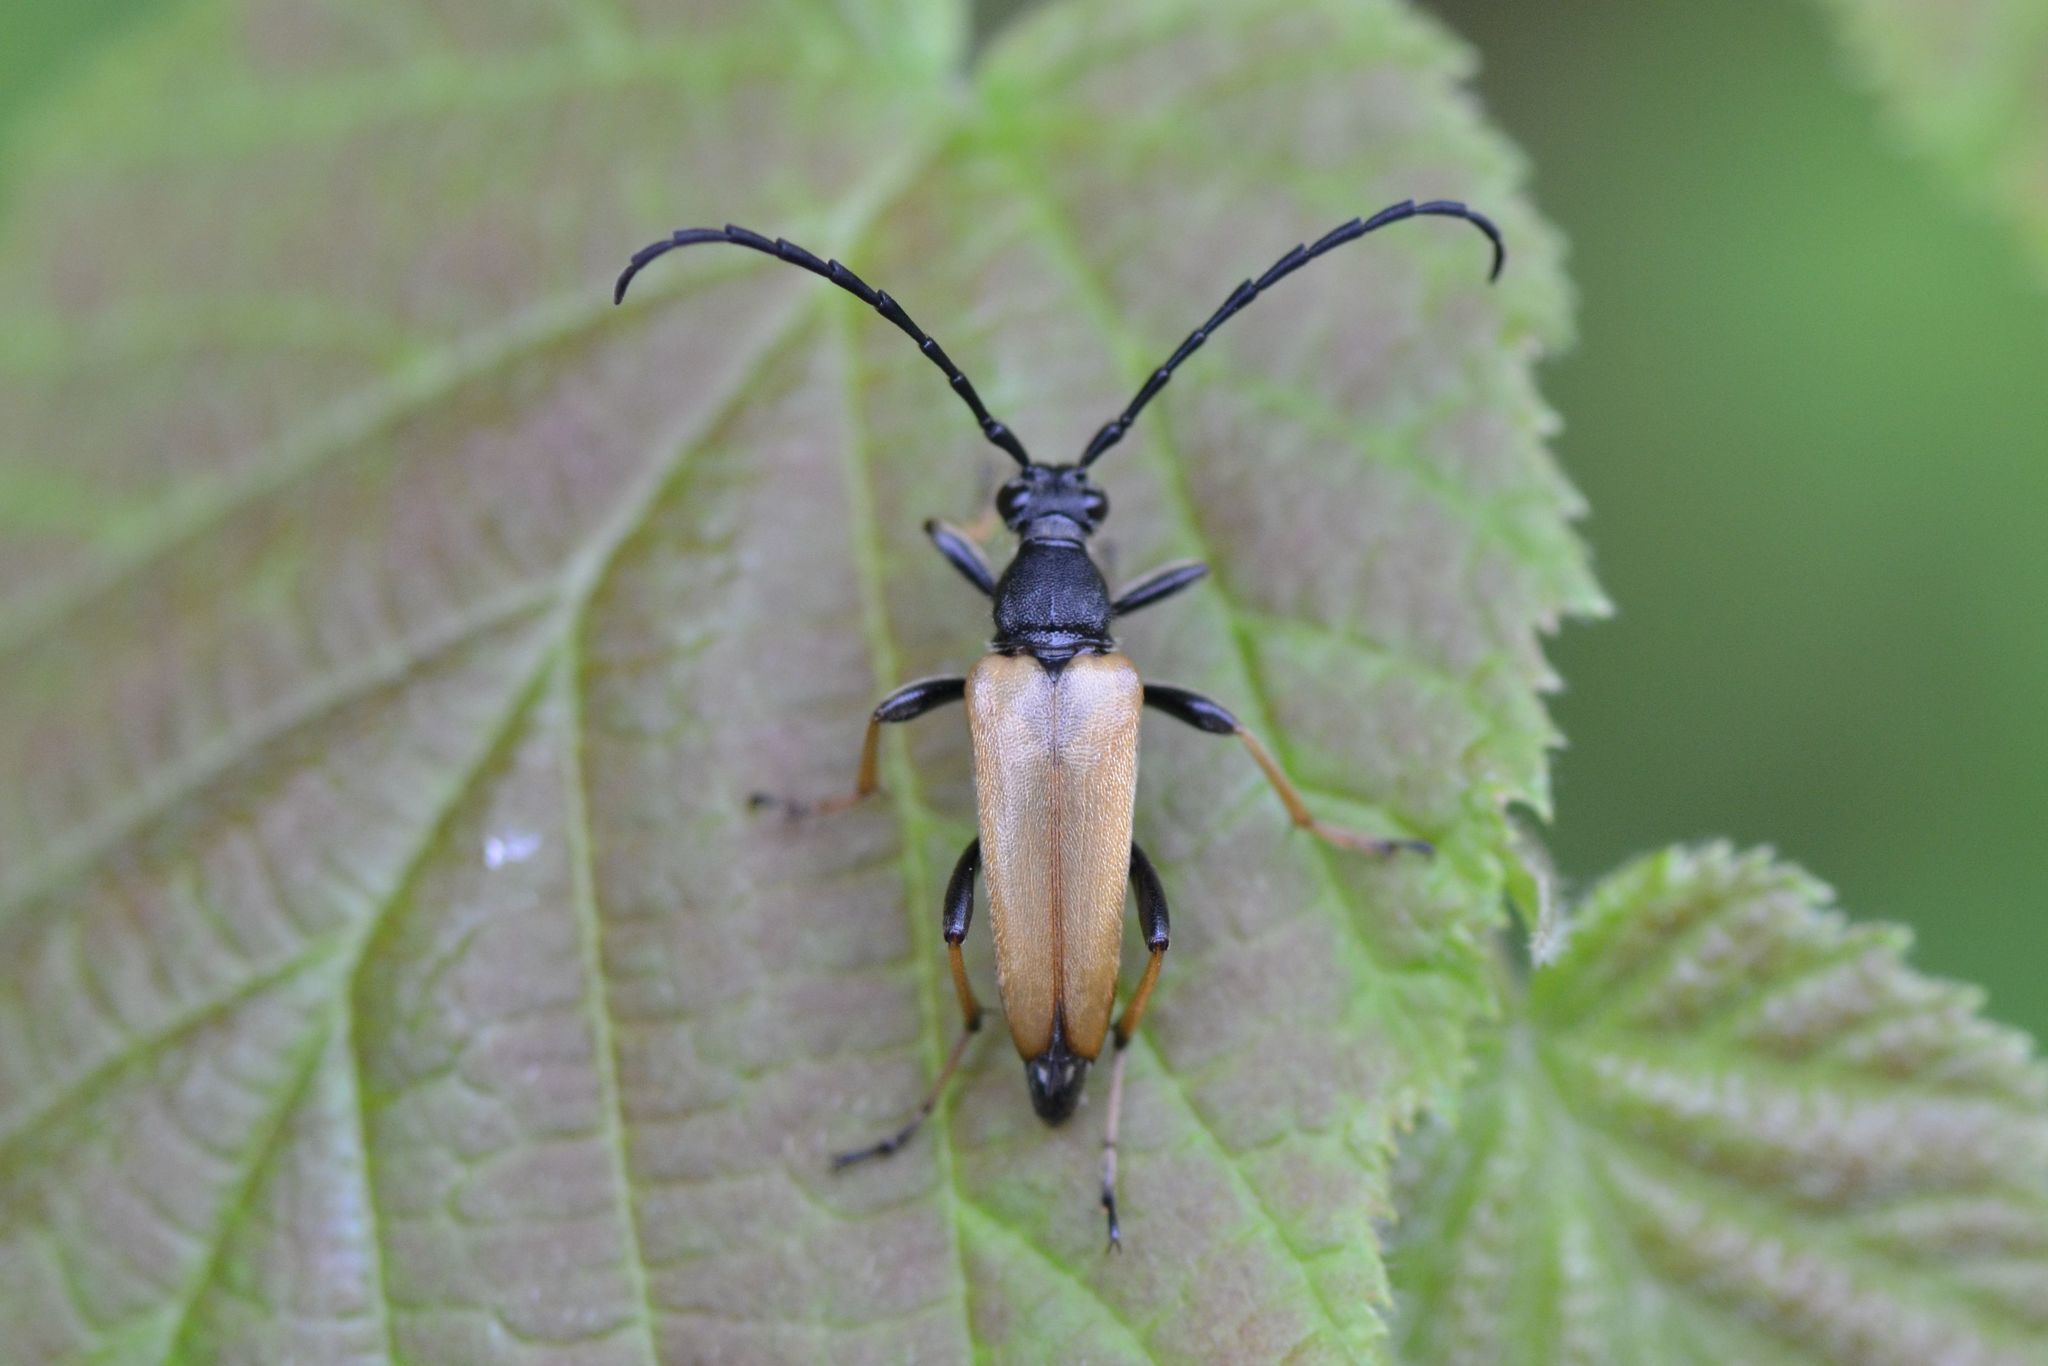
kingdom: Animalia
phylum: Arthropoda
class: Insecta
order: Coleoptera
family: Cerambycidae
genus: Stictoleptura
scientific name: Stictoleptura rubra
